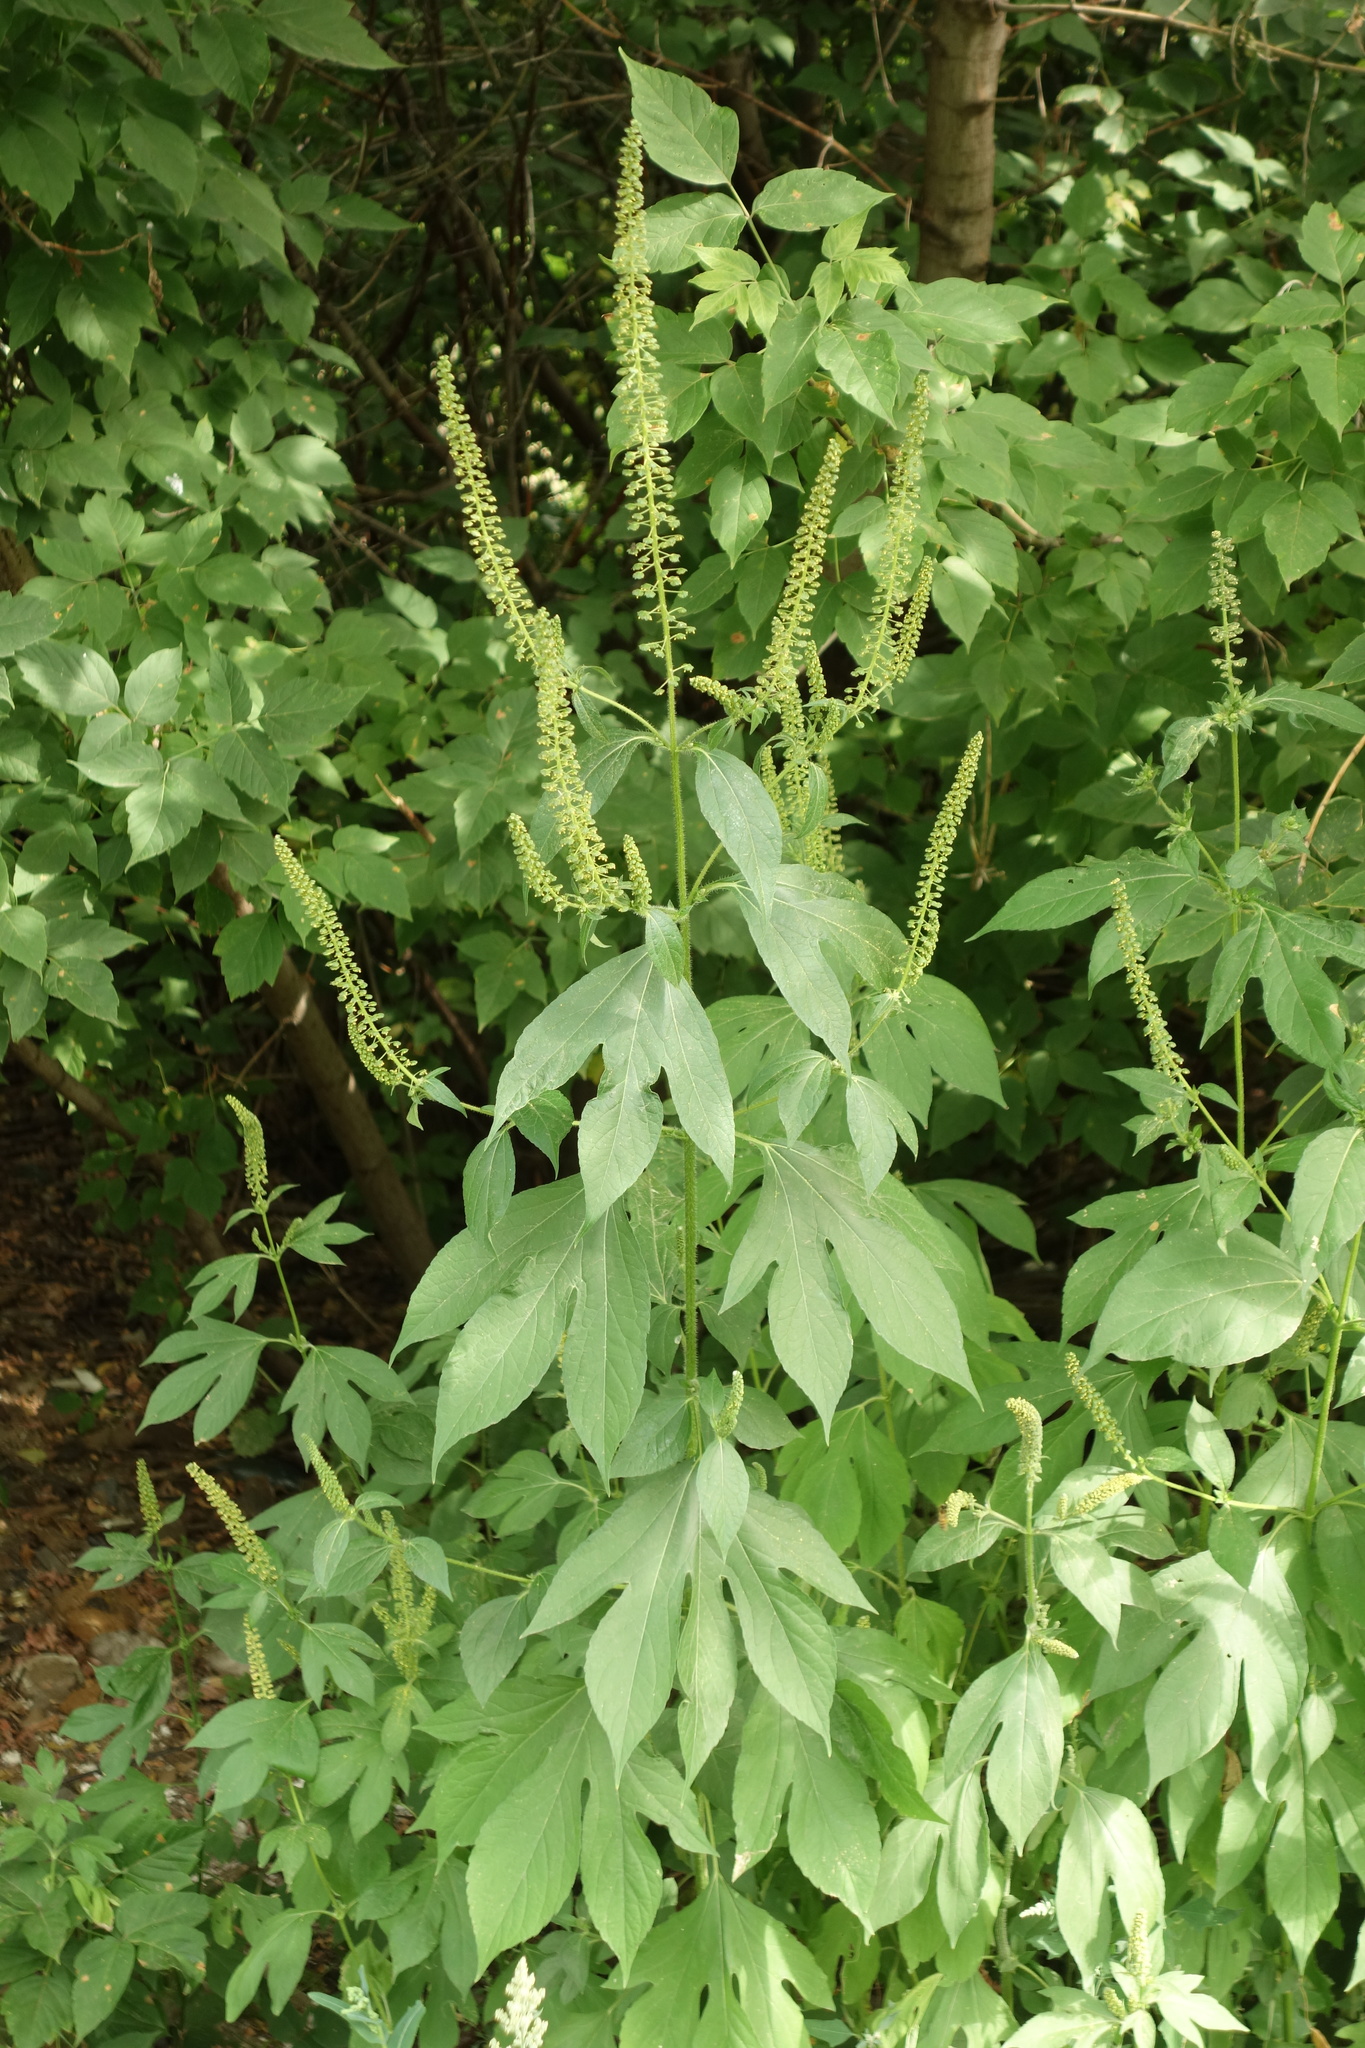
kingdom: Plantae
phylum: Tracheophyta
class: Magnoliopsida
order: Asterales
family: Asteraceae
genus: Ambrosia
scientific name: Ambrosia trifida
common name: Giant ragweed
